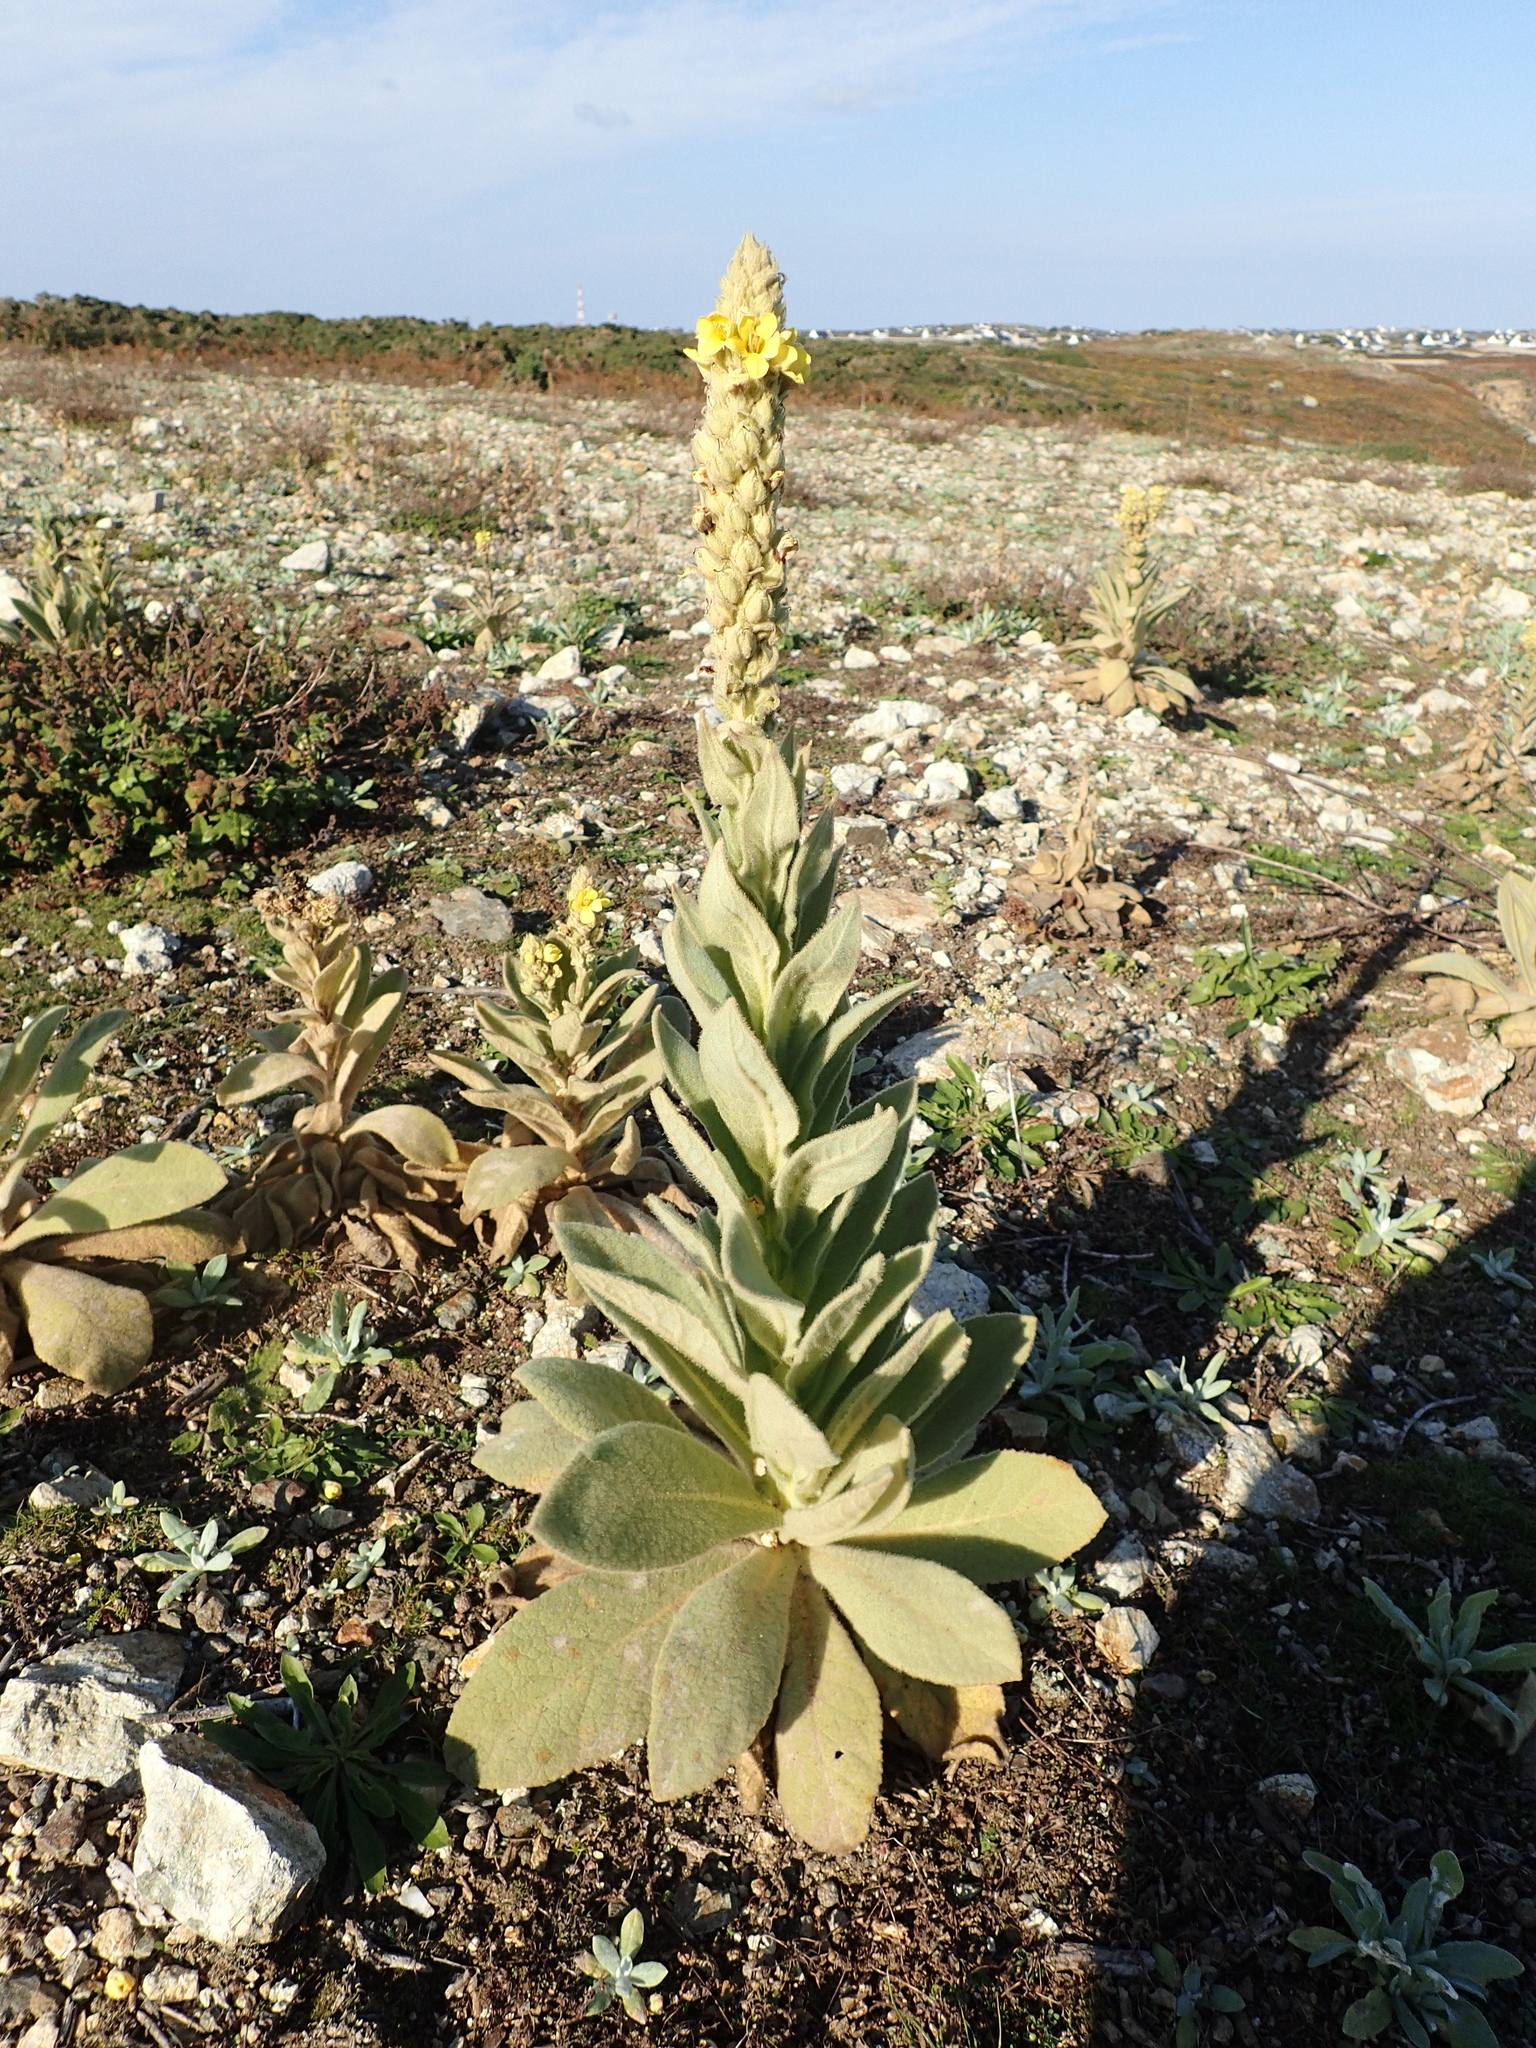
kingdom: Plantae
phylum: Tracheophyta
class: Magnoliopsida
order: Lamiales
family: Scrophulariaceae
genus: Verbascum
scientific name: Verbascum thapsus
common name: Common mullein
